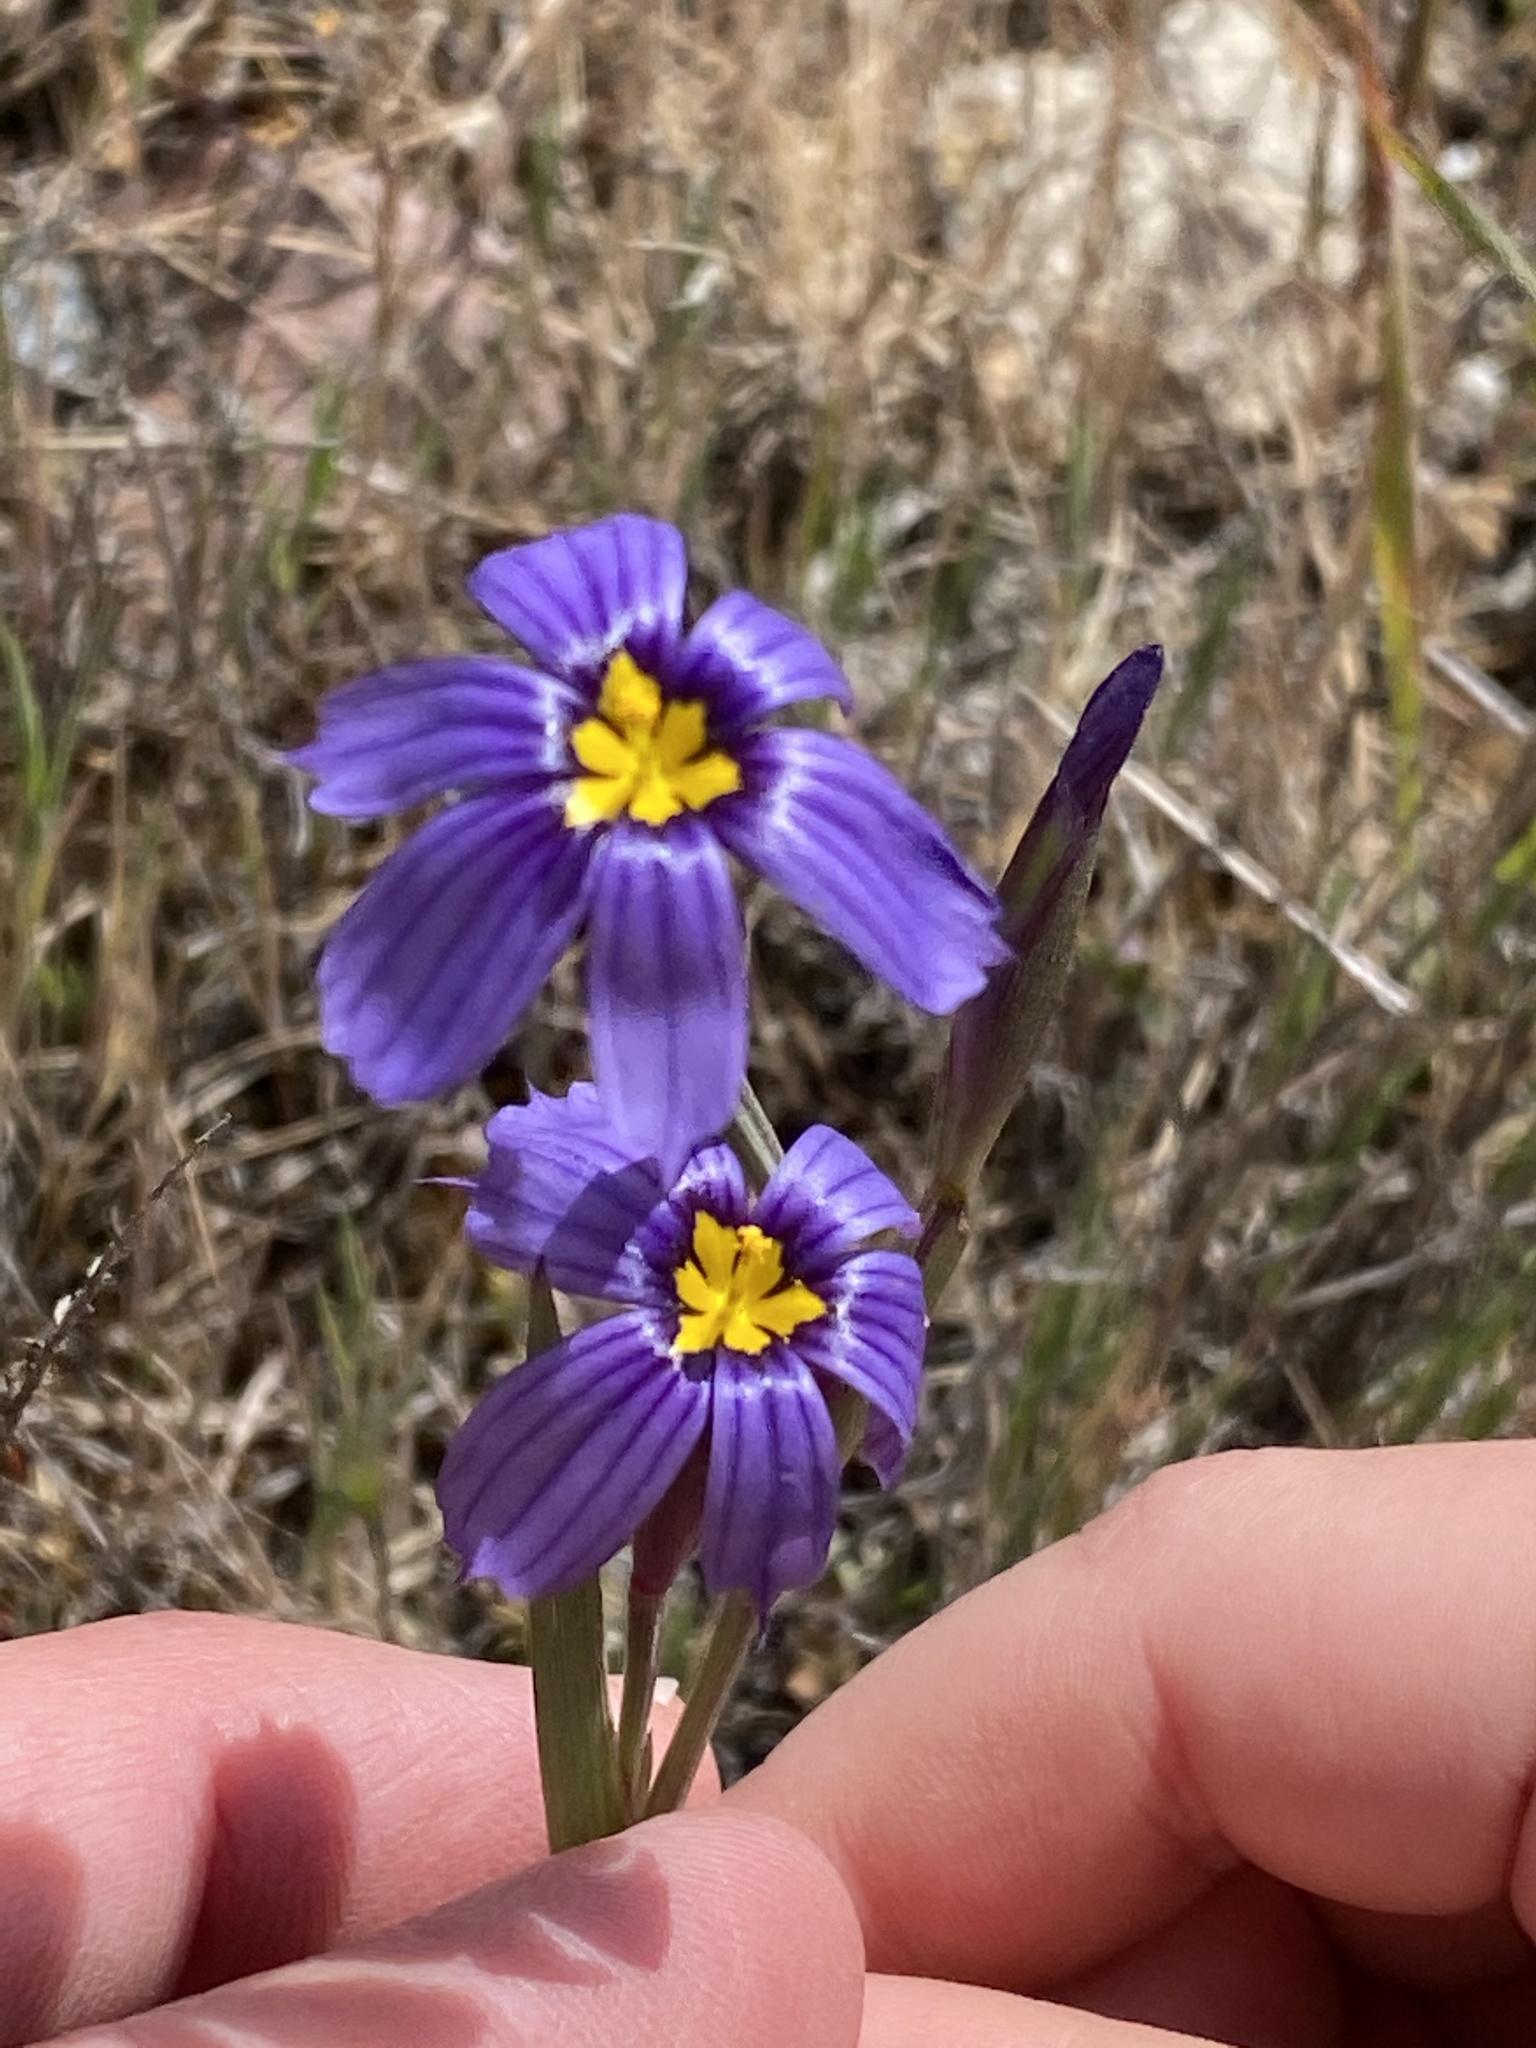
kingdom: Plantae
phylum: Tracheophyta
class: Liliopsida
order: Asparagales
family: Iridaceae
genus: Sisyrinchium
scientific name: Sisyrinchium bellum
